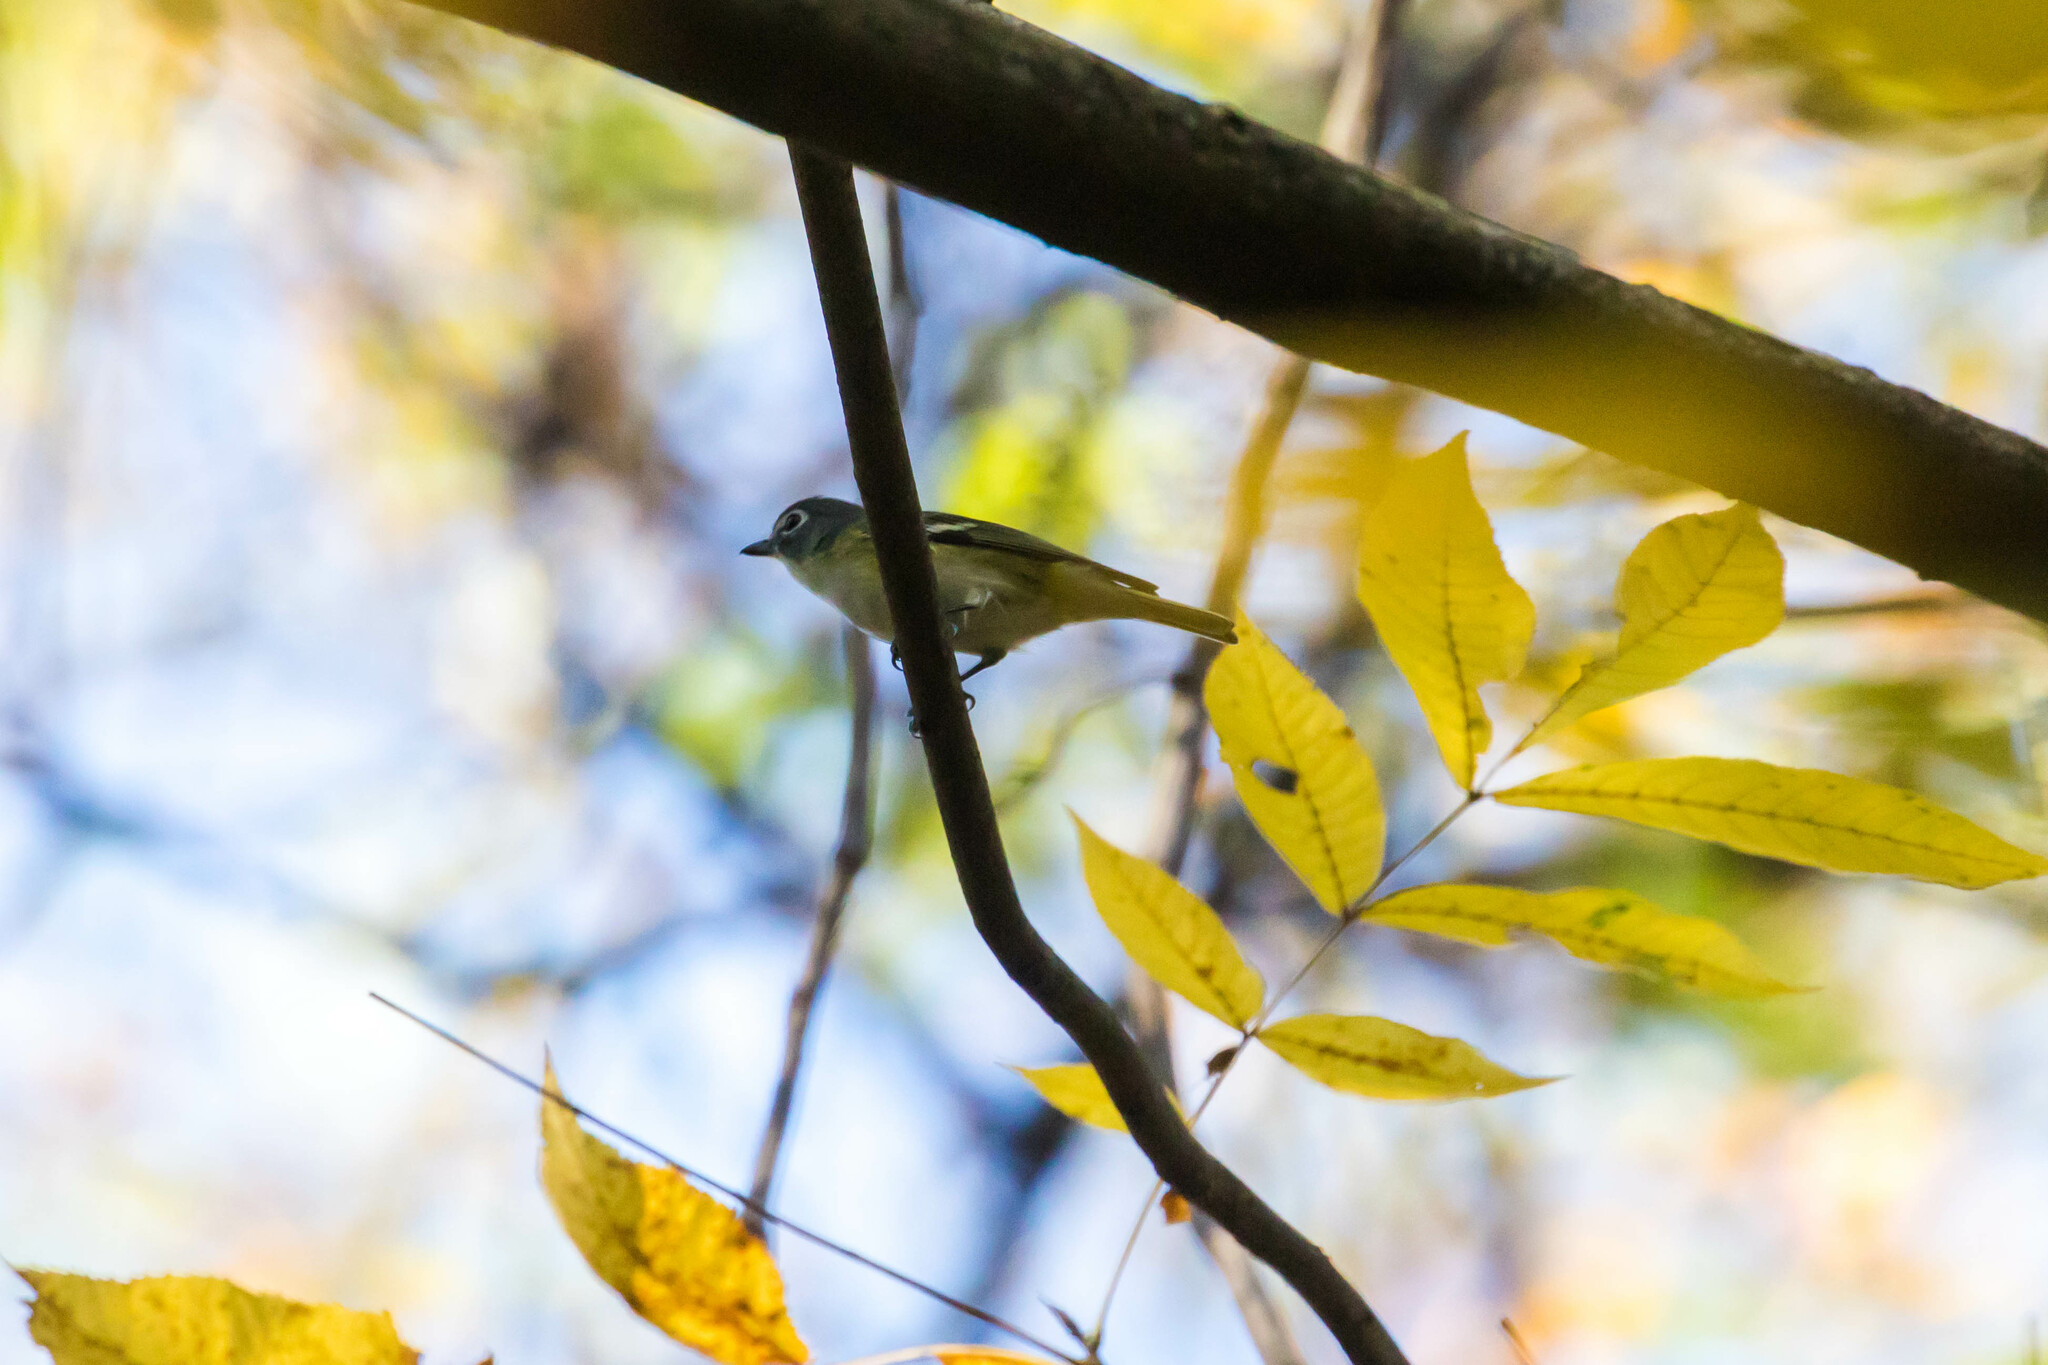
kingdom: Animalia
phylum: Chordata
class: Aves
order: Passeriformes
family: Vireonidae
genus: Vireo
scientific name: Vireo solitarius
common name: Blue-headed vireo
